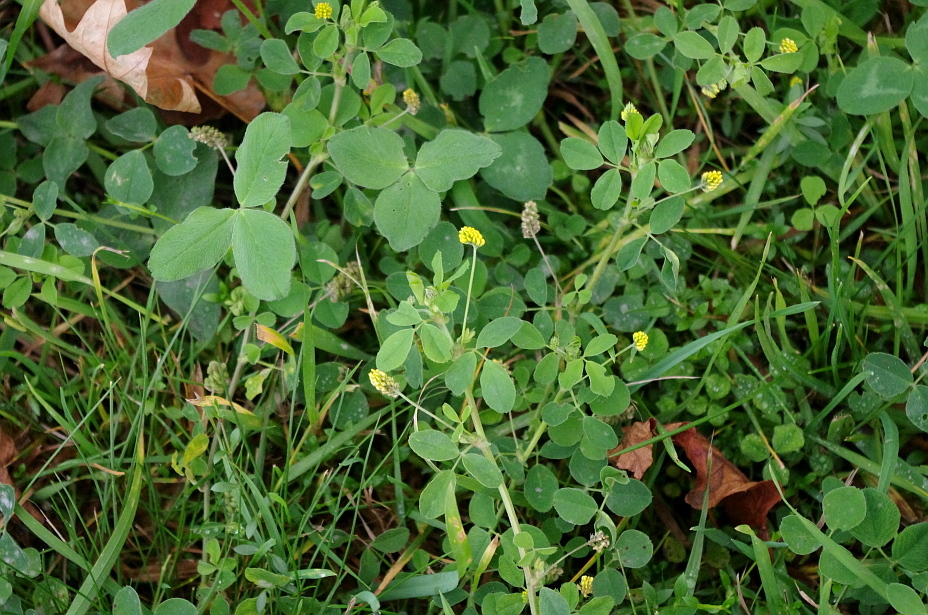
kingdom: Plantae
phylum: Tracheophyta
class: Magnoliopsida
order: Fabales
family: Fabaceae
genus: Medicago
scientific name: Medicago lupulina
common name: Black medick
